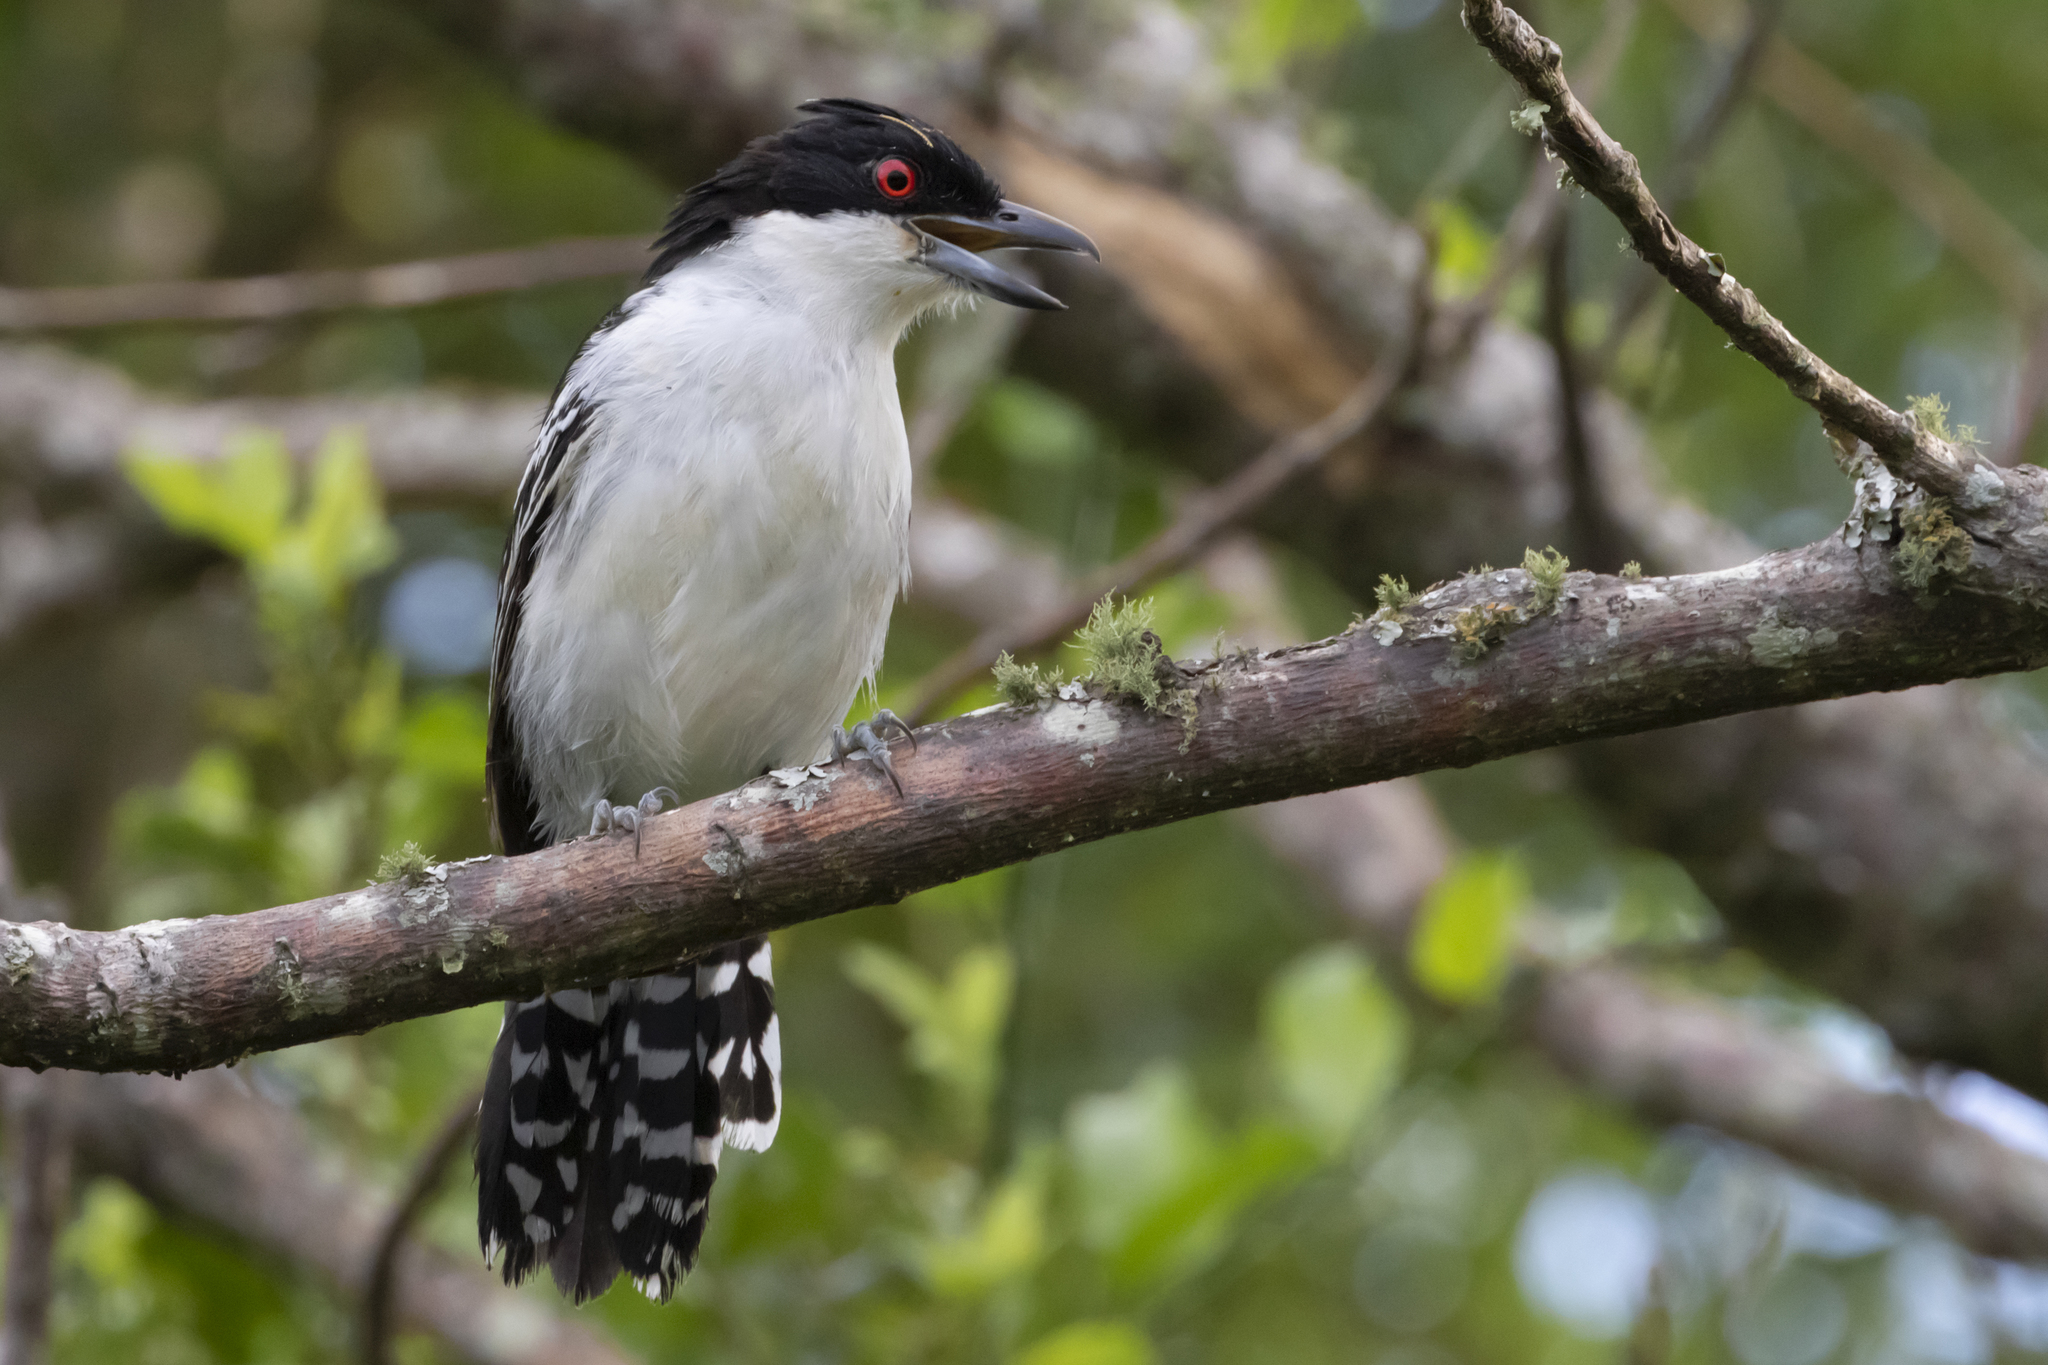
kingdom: Animalia
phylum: Chordata
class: Aves
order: Passeriformes
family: Thamnophilidae
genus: Taraba
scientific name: Taraba major
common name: Great antshrike
